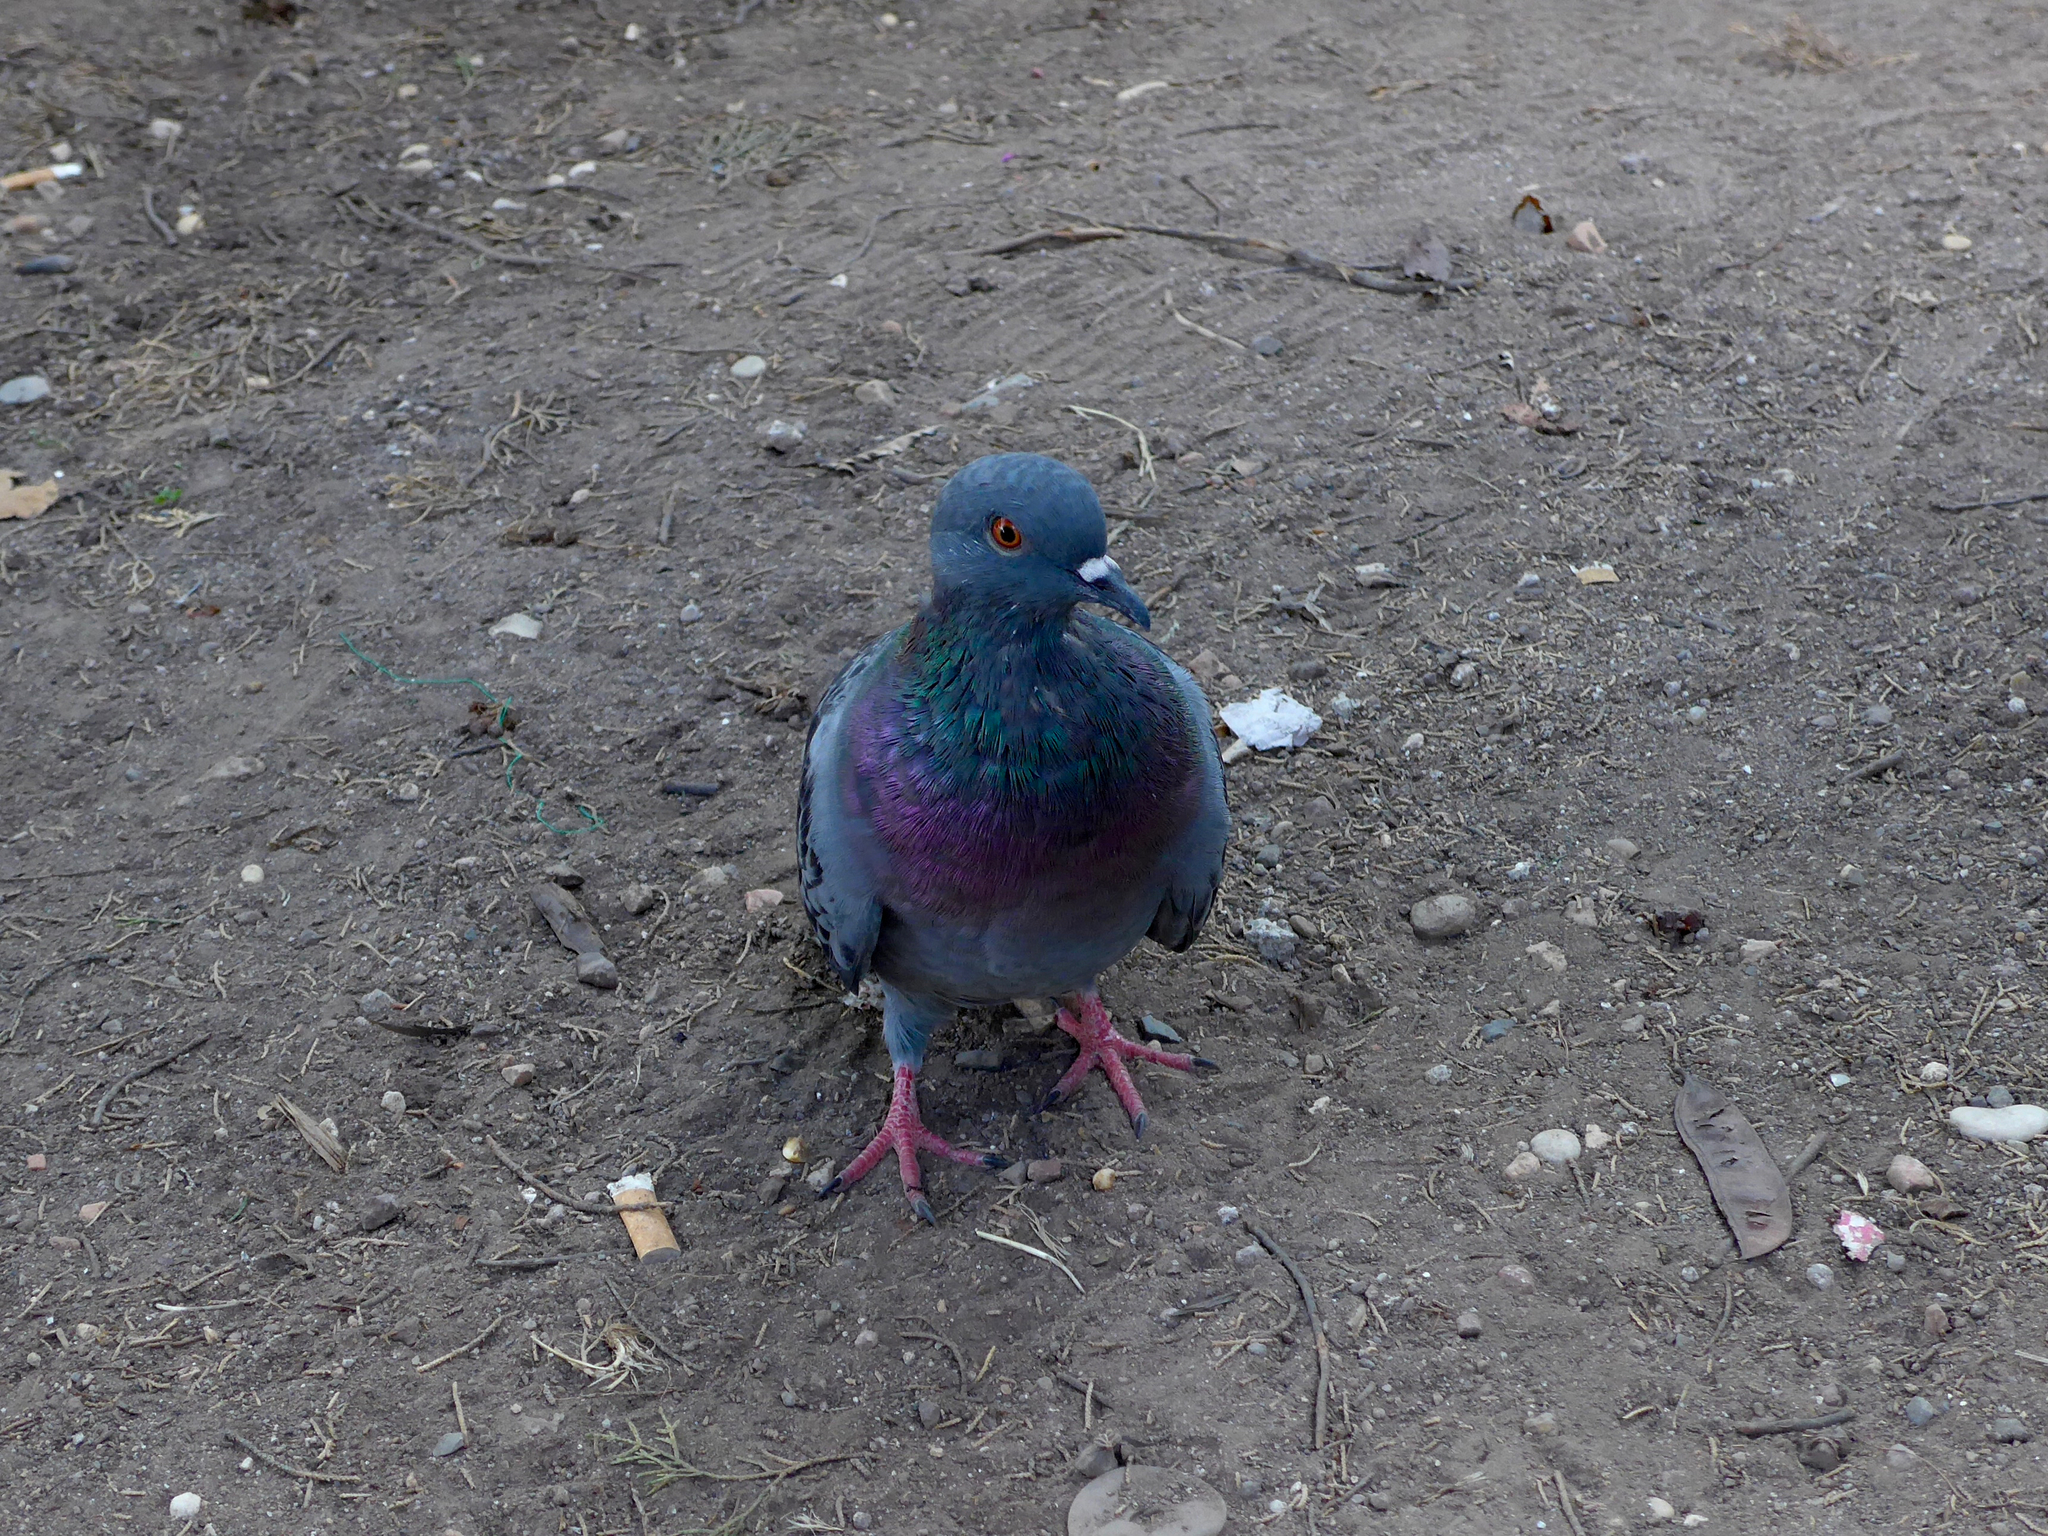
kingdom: Animalia
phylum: Chordata
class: Aves
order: Columbiformes
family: Columbidae
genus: Columba
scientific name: Columba livia
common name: Rock pigeon
